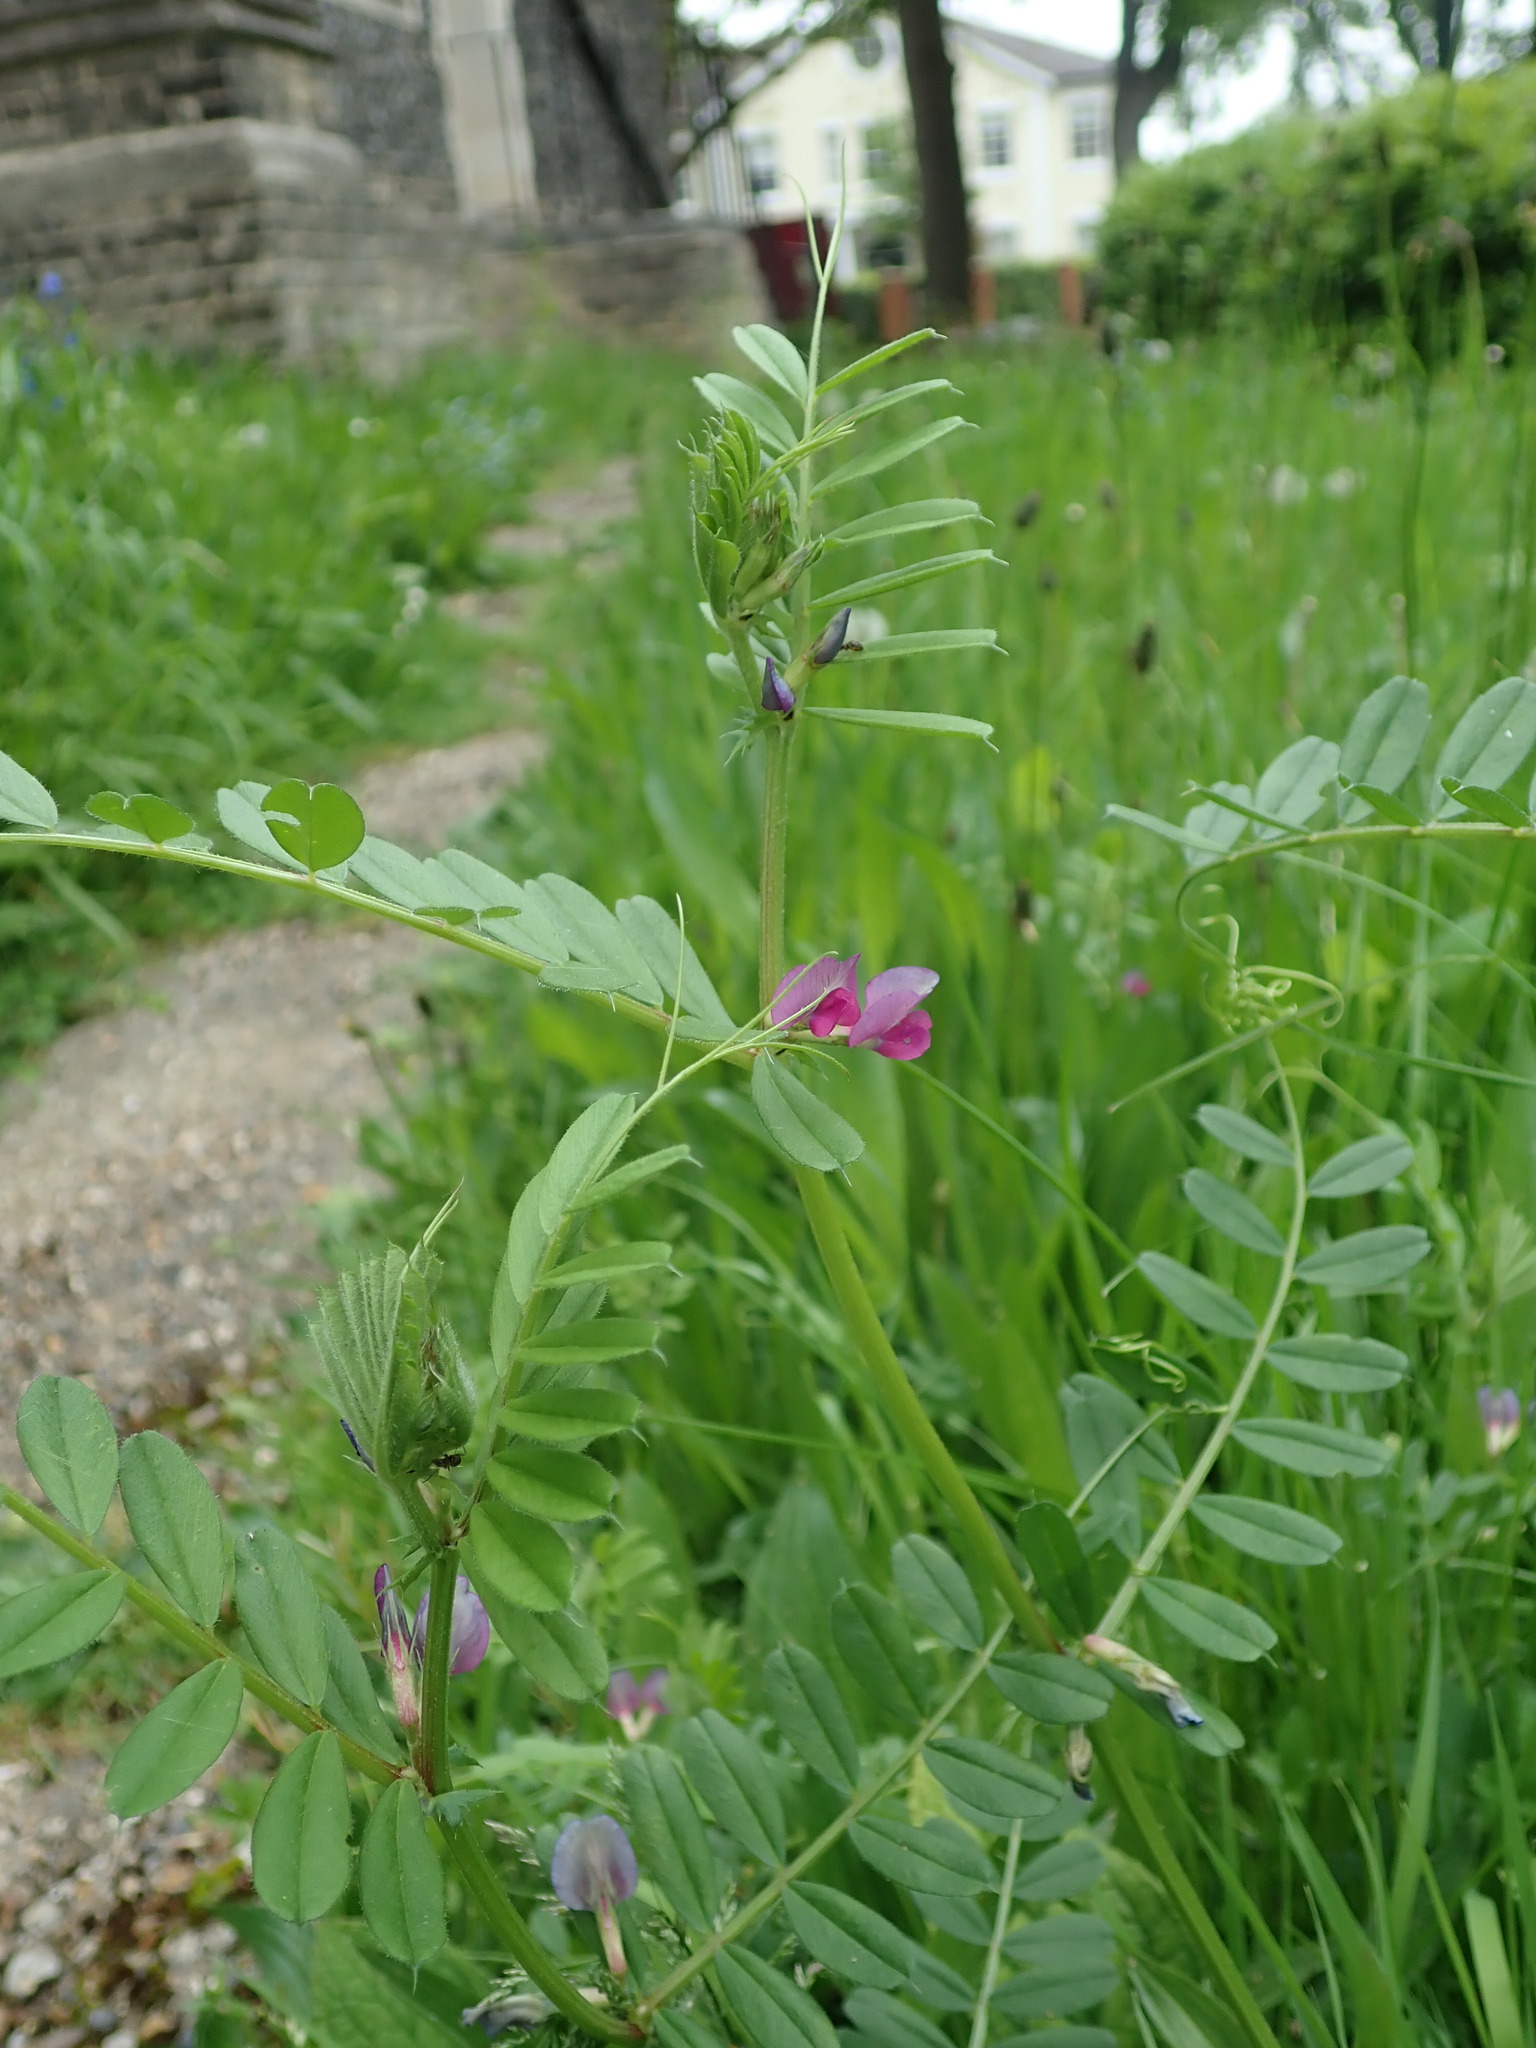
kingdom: Plantae
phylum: Tracheophyta
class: Magnoliopsida
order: Fabales
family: Fabaceae
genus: Vicia
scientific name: Vicia sativa
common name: Garden vetch
